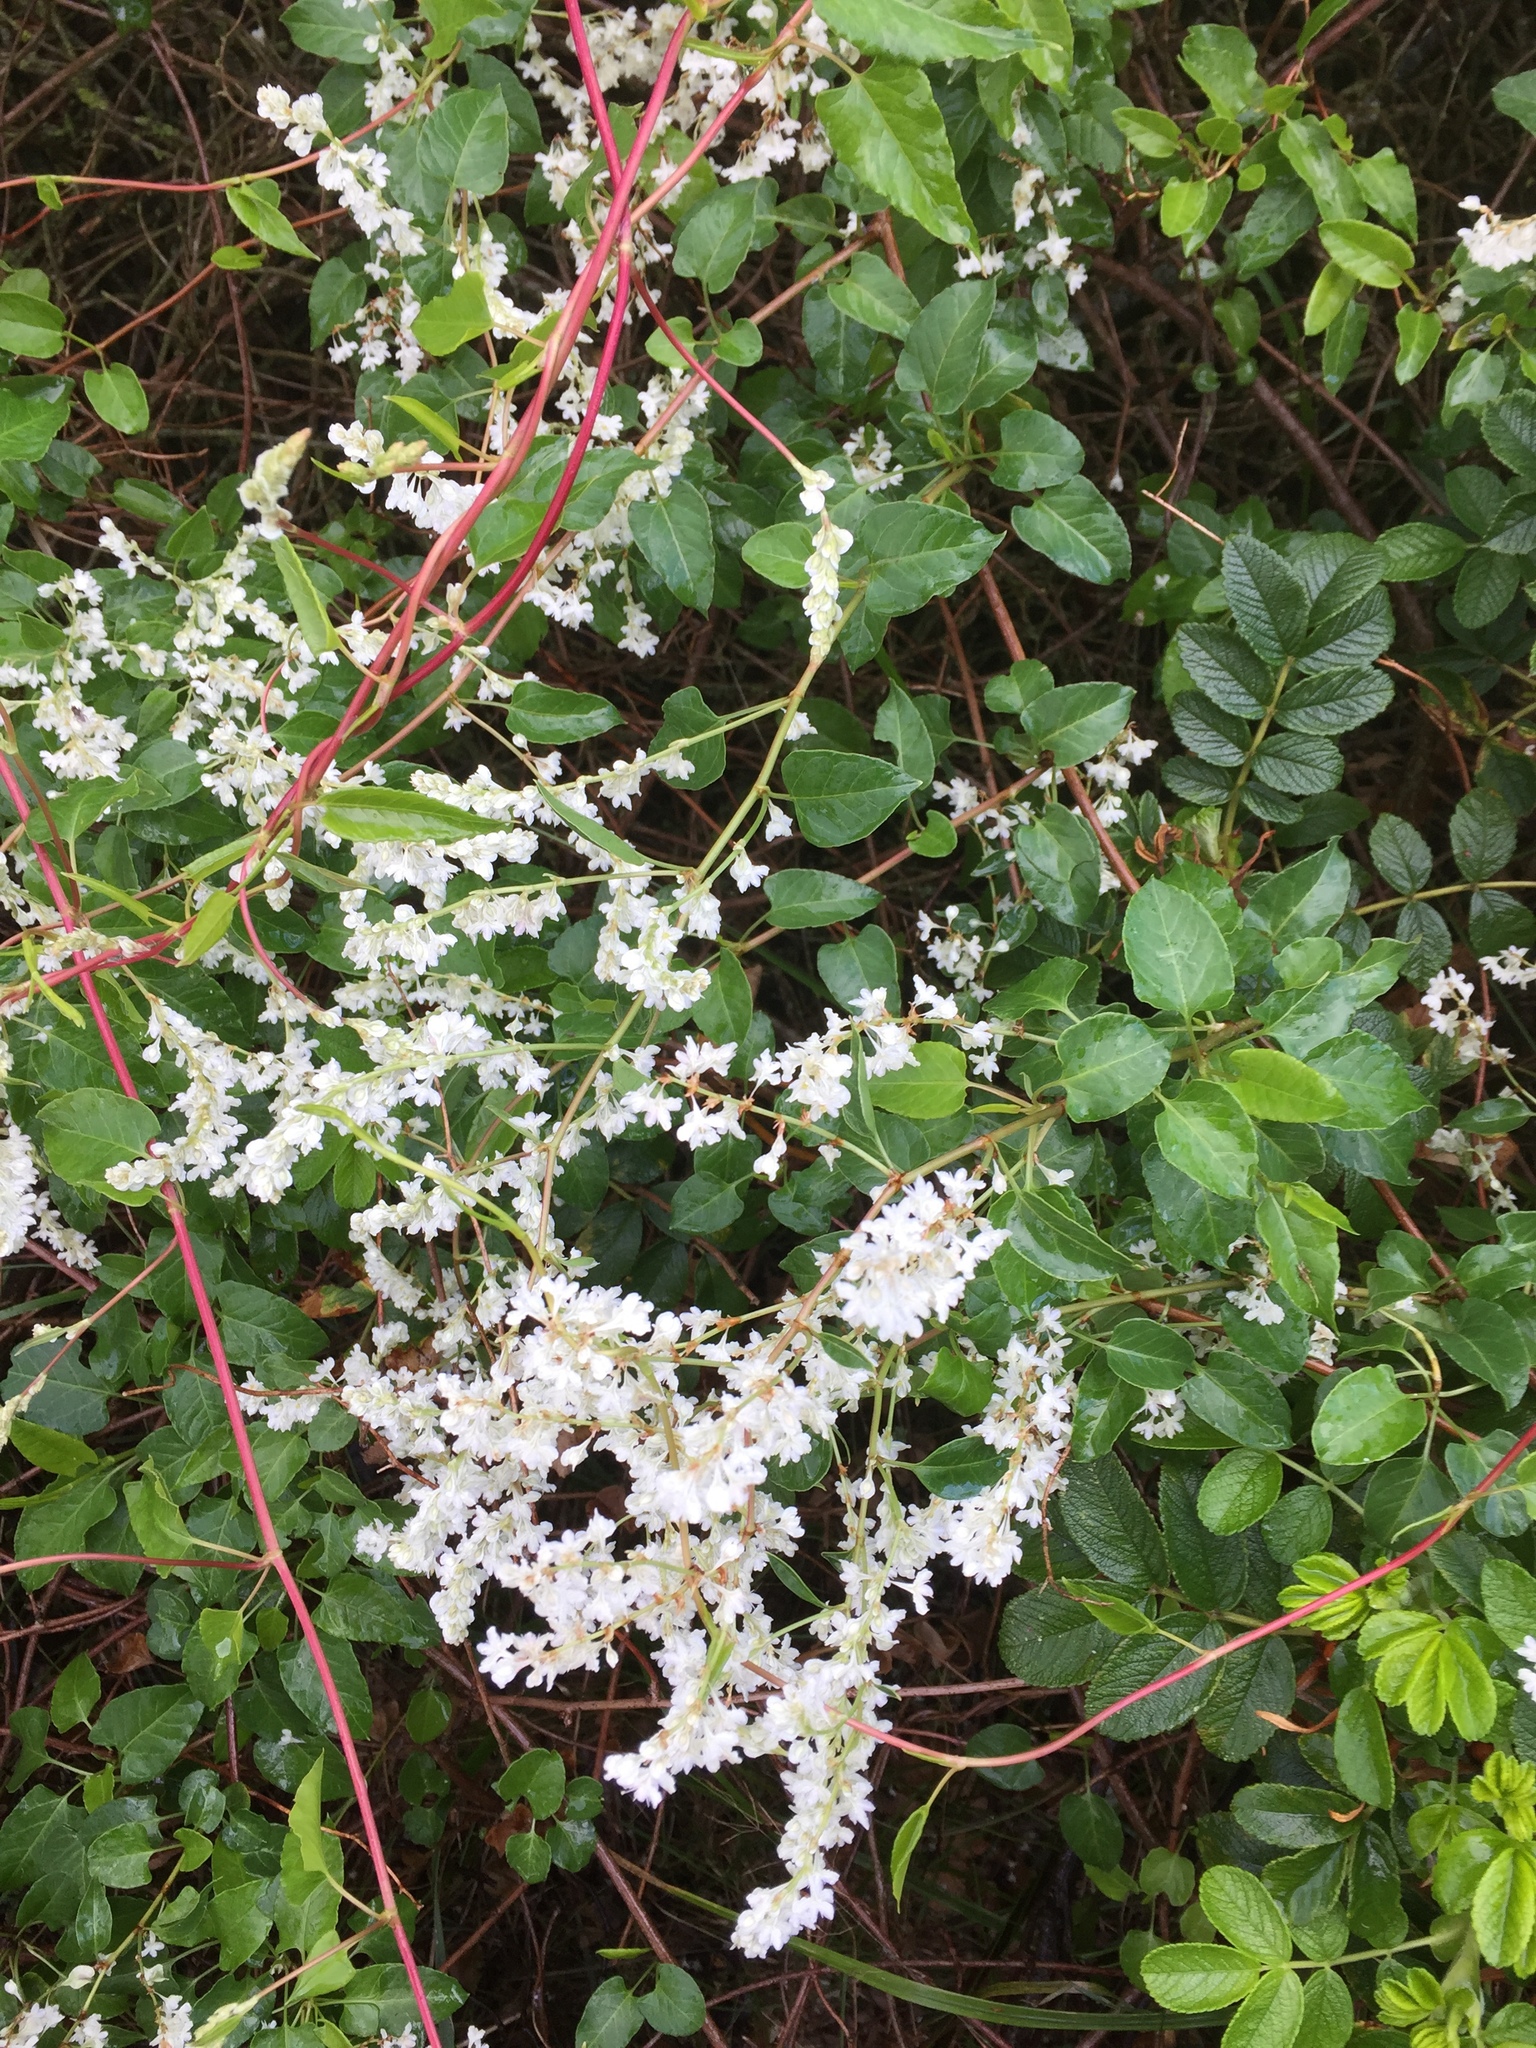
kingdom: Plantae
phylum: Tracheophyta
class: Magnoliopsida
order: Caryophyllales
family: Polygonaceae
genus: Fallopia
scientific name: Fallopia baldschuanica
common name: Russian-vine
